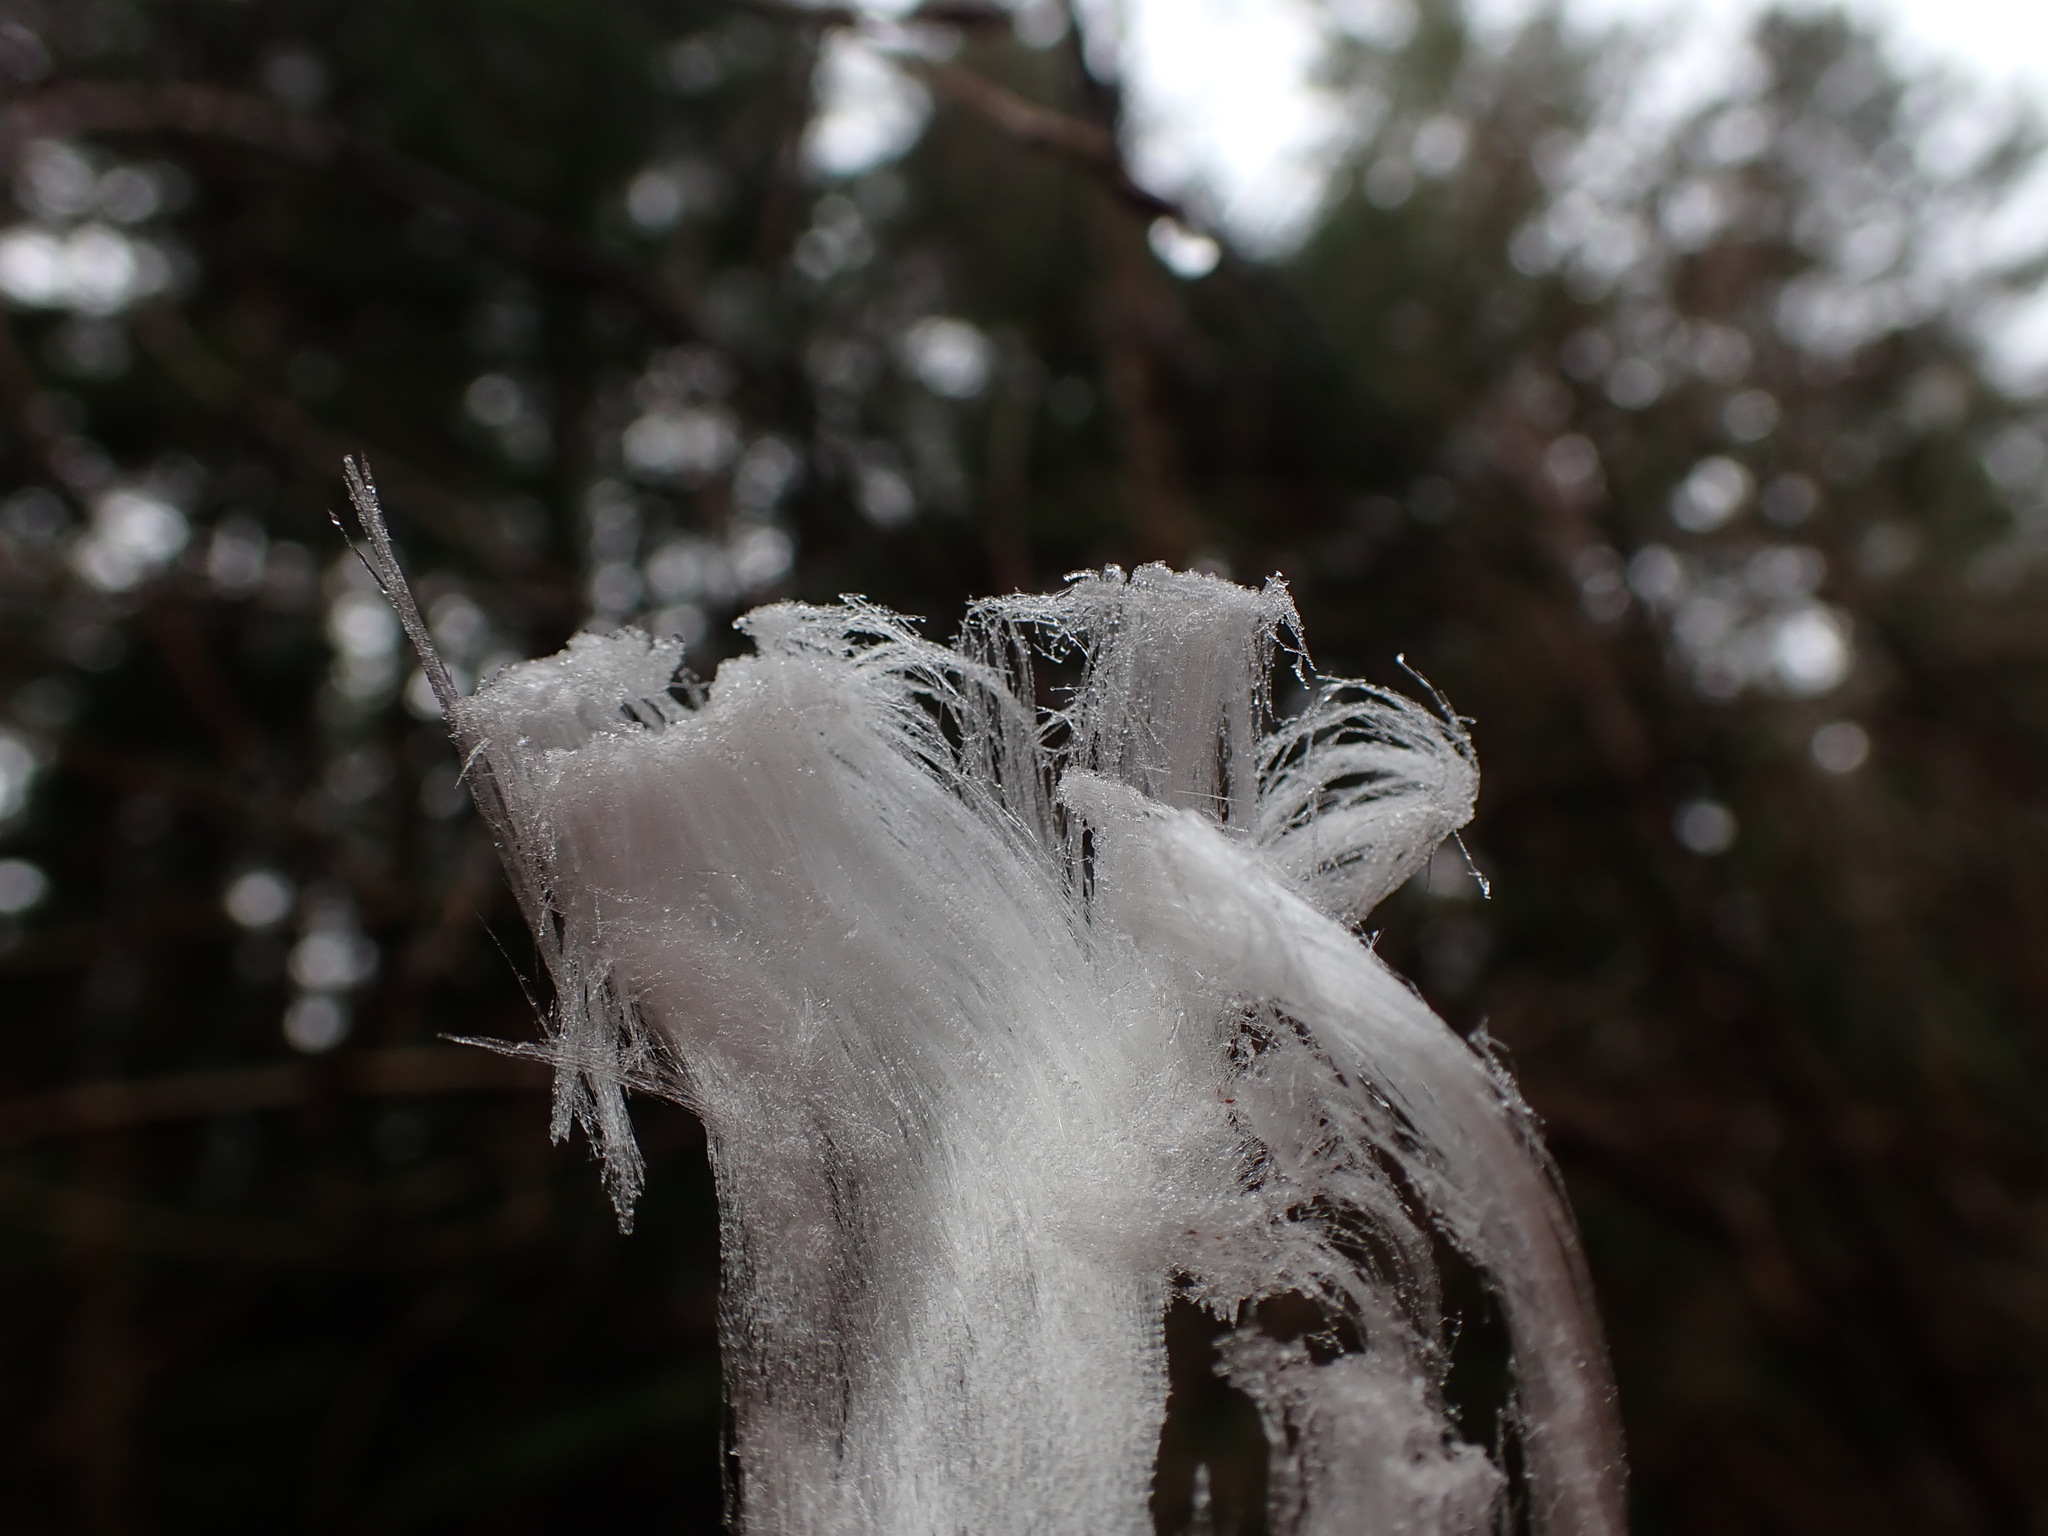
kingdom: Fungi
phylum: Basidiomycota
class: Agaricomycetes
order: Auriculariales
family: Auriculariaceae
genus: Exidiopsis
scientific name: Exidiopsis effusa
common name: Hair ice crust
